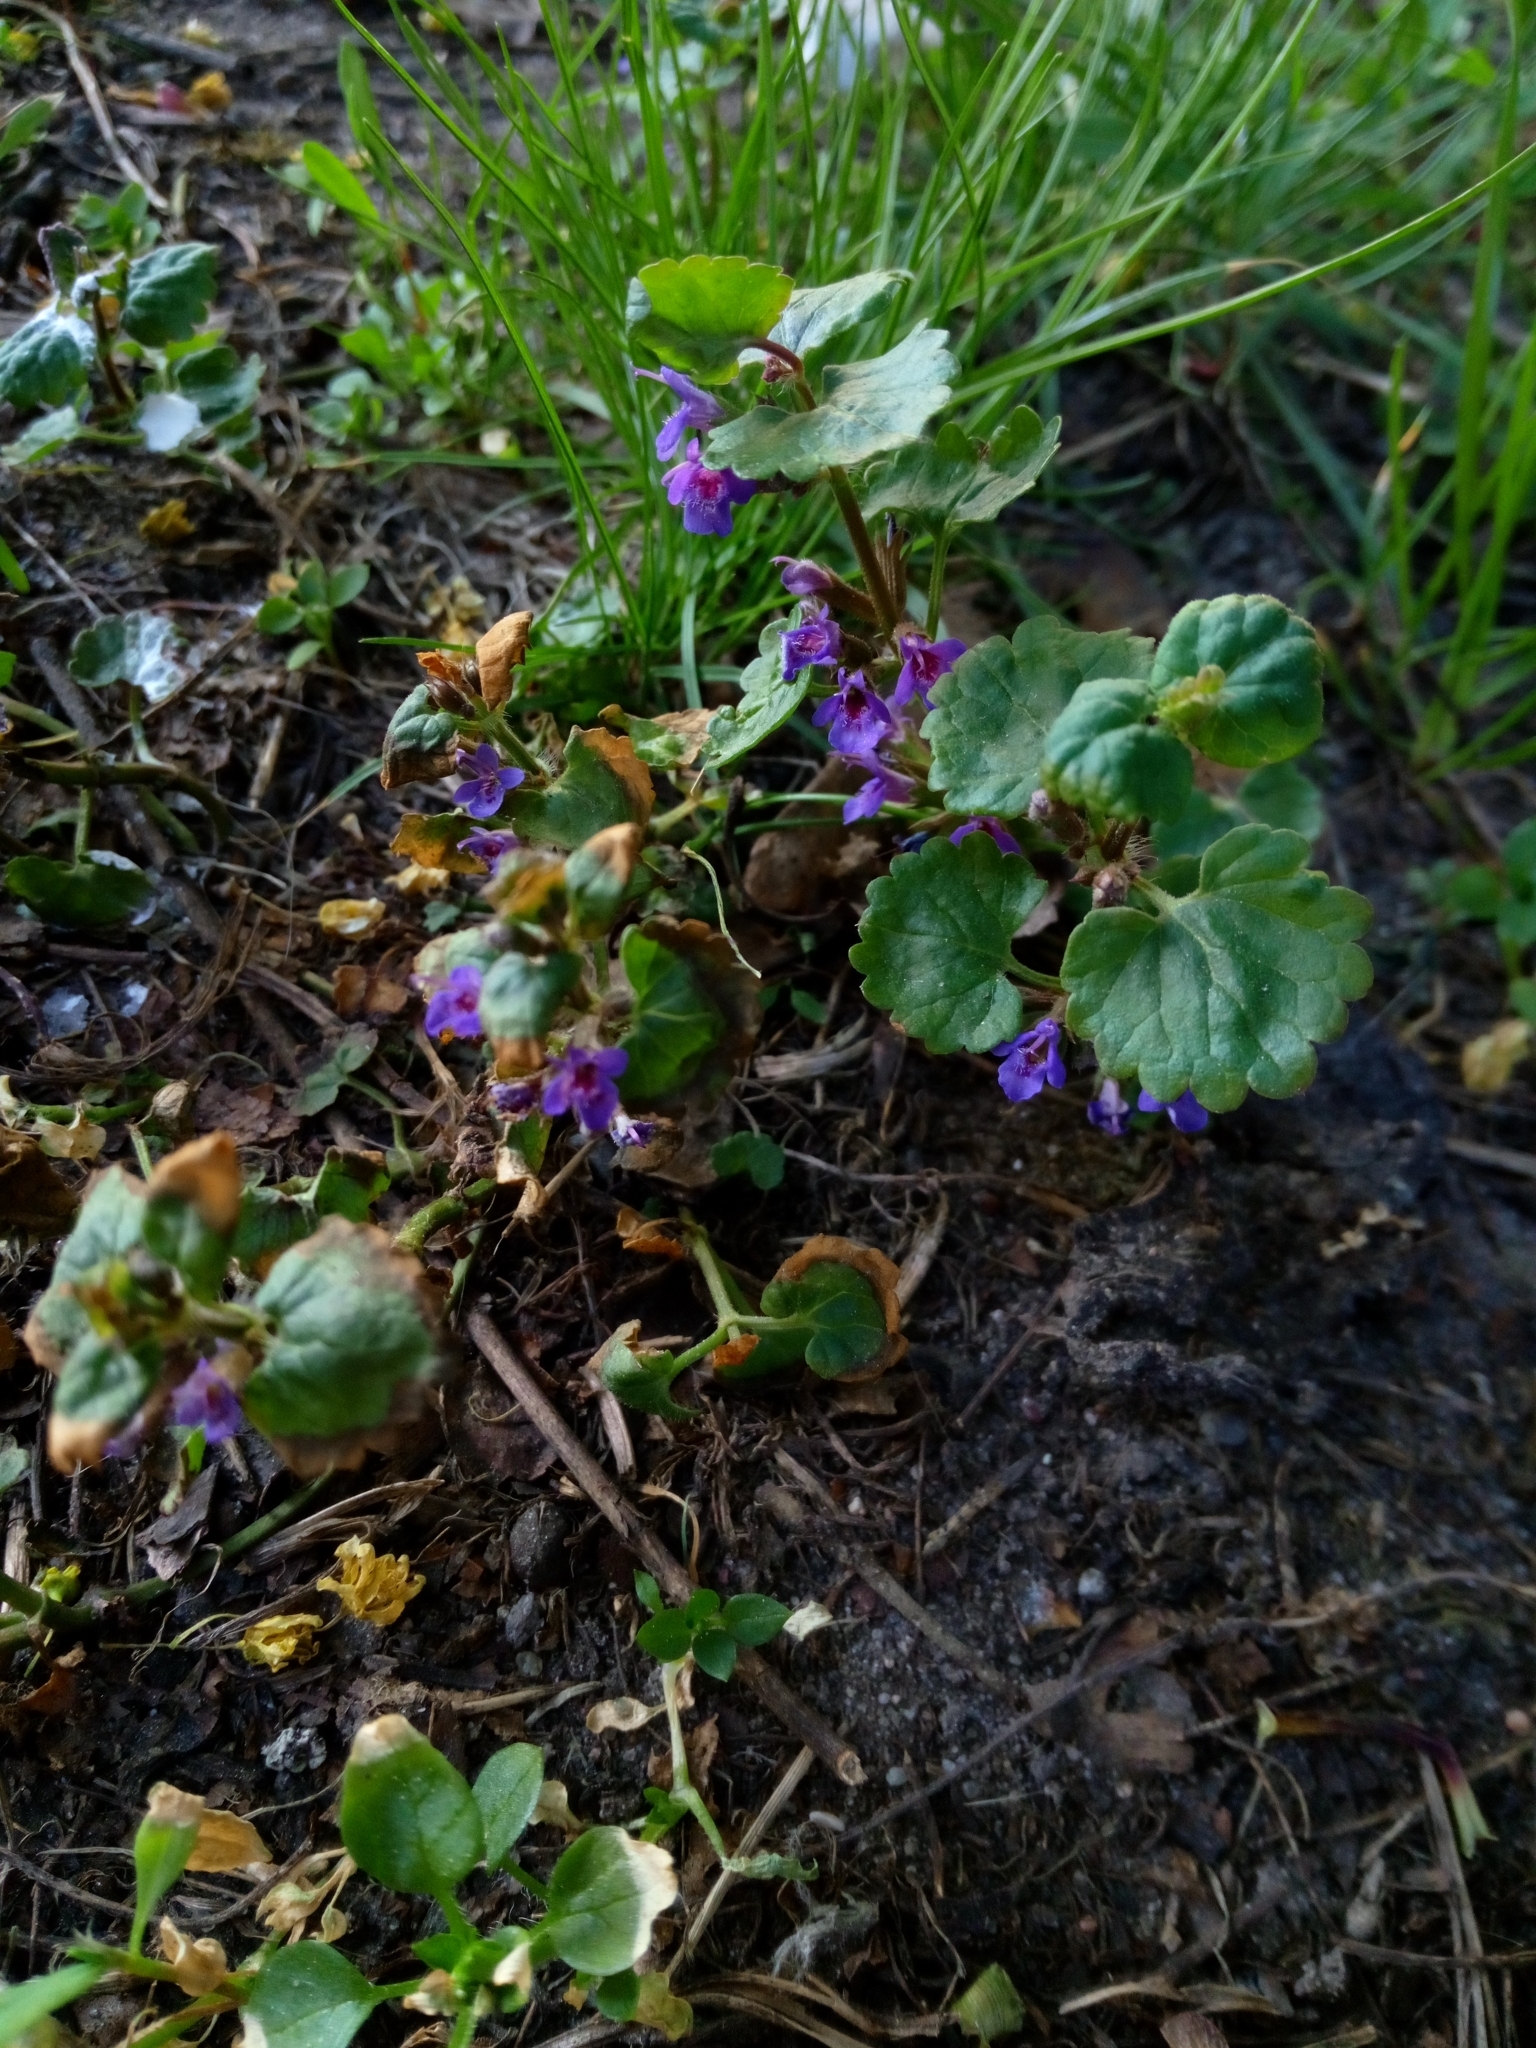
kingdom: Plantae
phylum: Tracheophyta
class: Magnoliopsida
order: Lamiales
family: Lamiaceae
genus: Glechoma
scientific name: Glechoma hederacea
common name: Ground ivy
